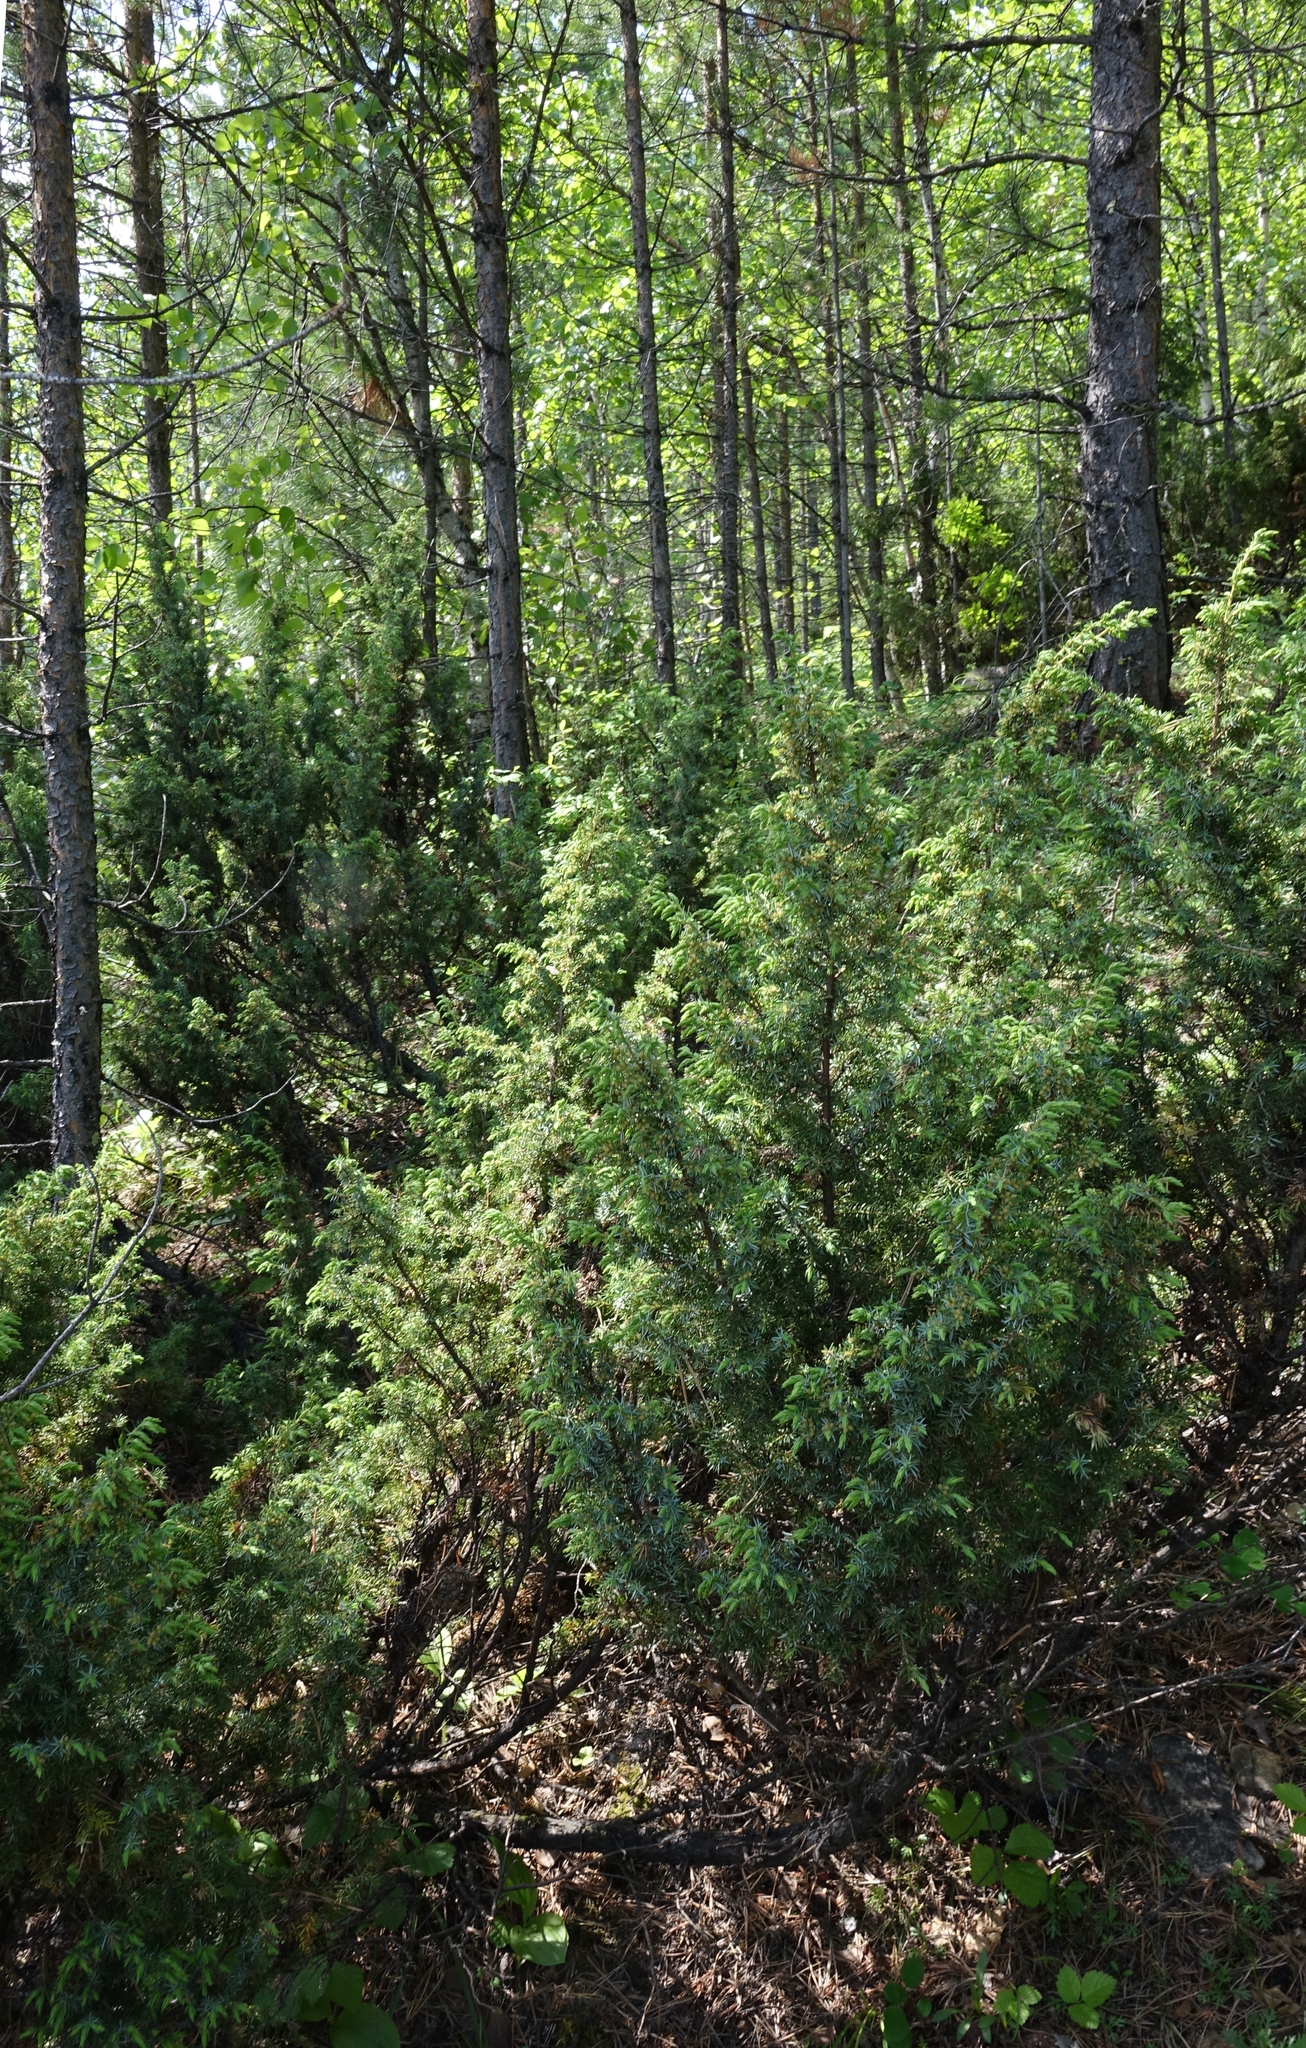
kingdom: Plantae
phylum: Tracheophyta
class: Pinopsida
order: Pinales
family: Cupressaceae
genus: Juniperus
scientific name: Juniperus communis
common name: Common juniper
